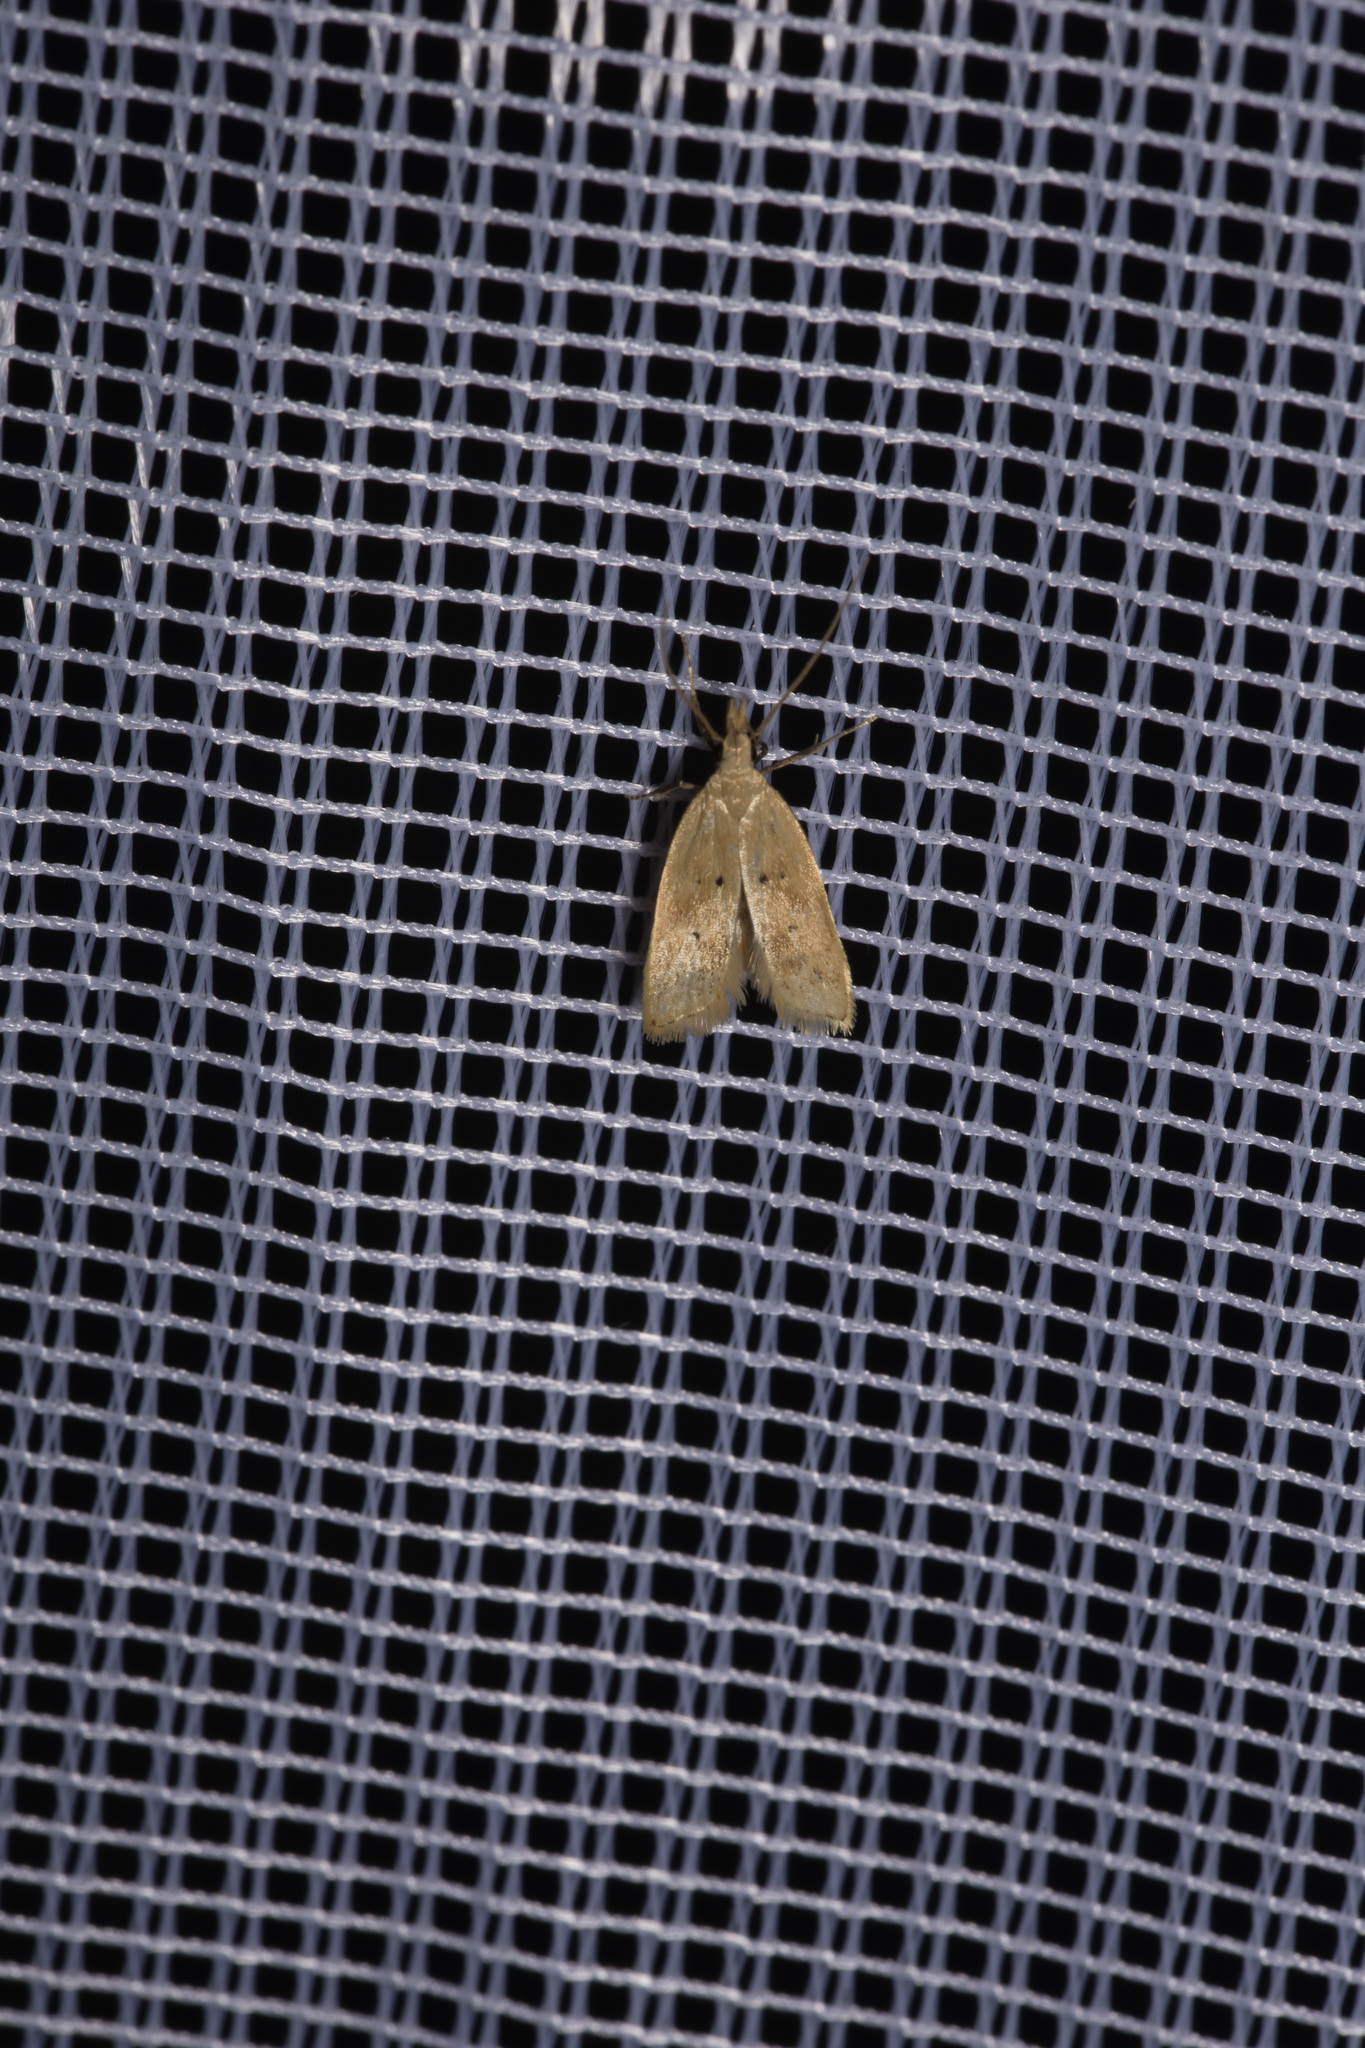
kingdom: Animalia
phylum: Arthropoda
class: Insecta
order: Lepidoptera
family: Gelechiidae
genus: Acompsia
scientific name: Acompsia schmidtiellus
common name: Marjoram crest
